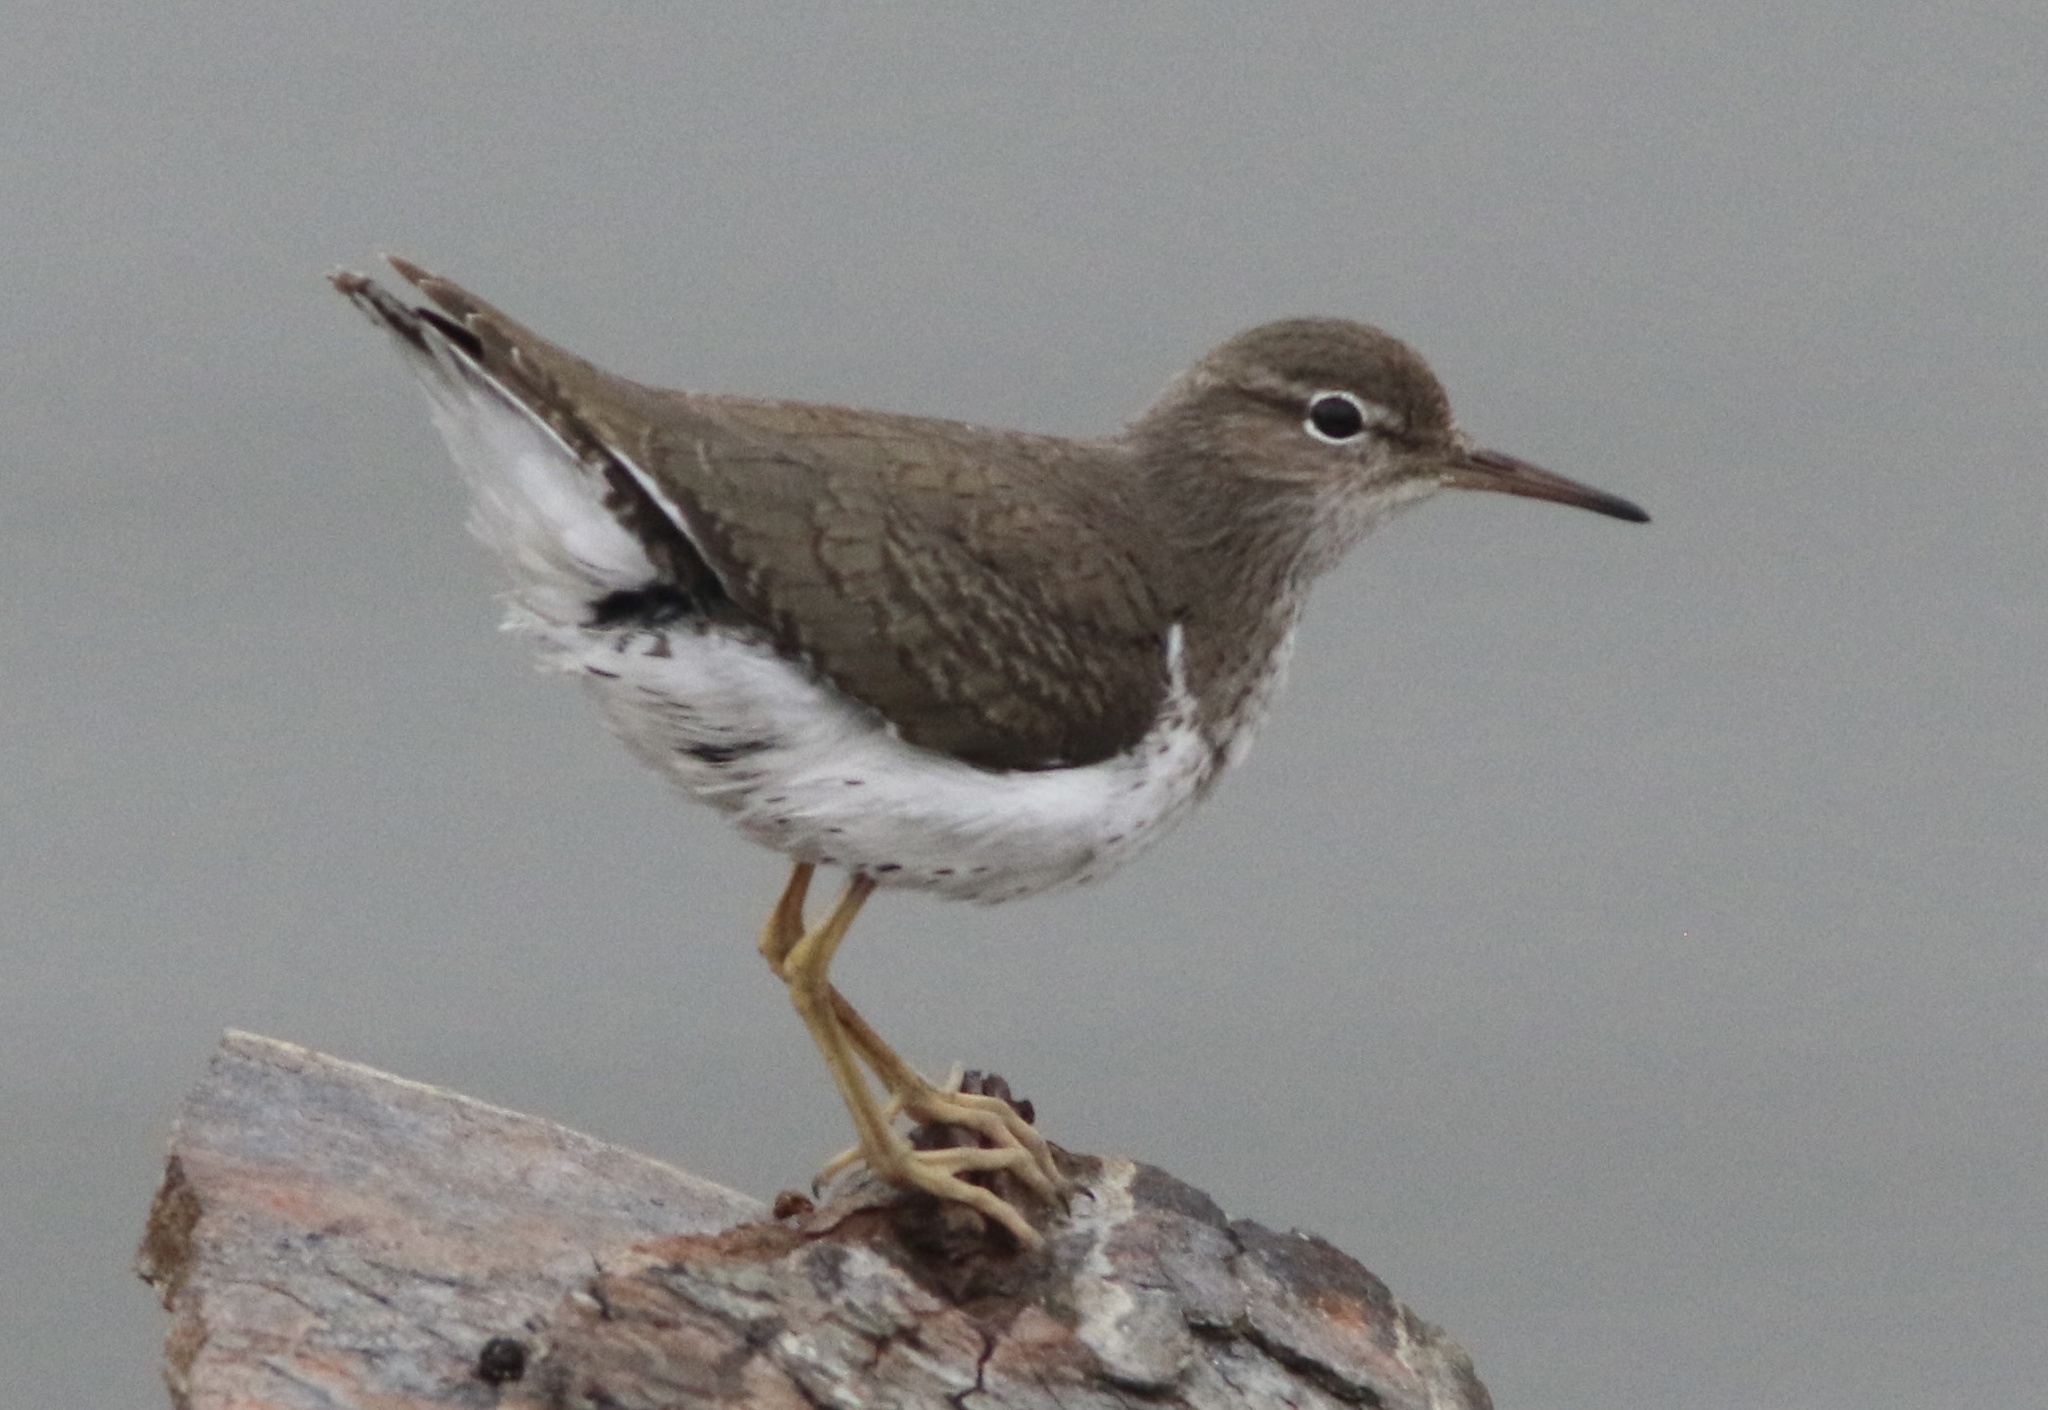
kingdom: Animalia
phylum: Chordata
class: Aves
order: Charadriiformes
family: Scolopacidae
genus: Actitis
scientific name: Actitis macularius
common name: Spotted sandpiper
